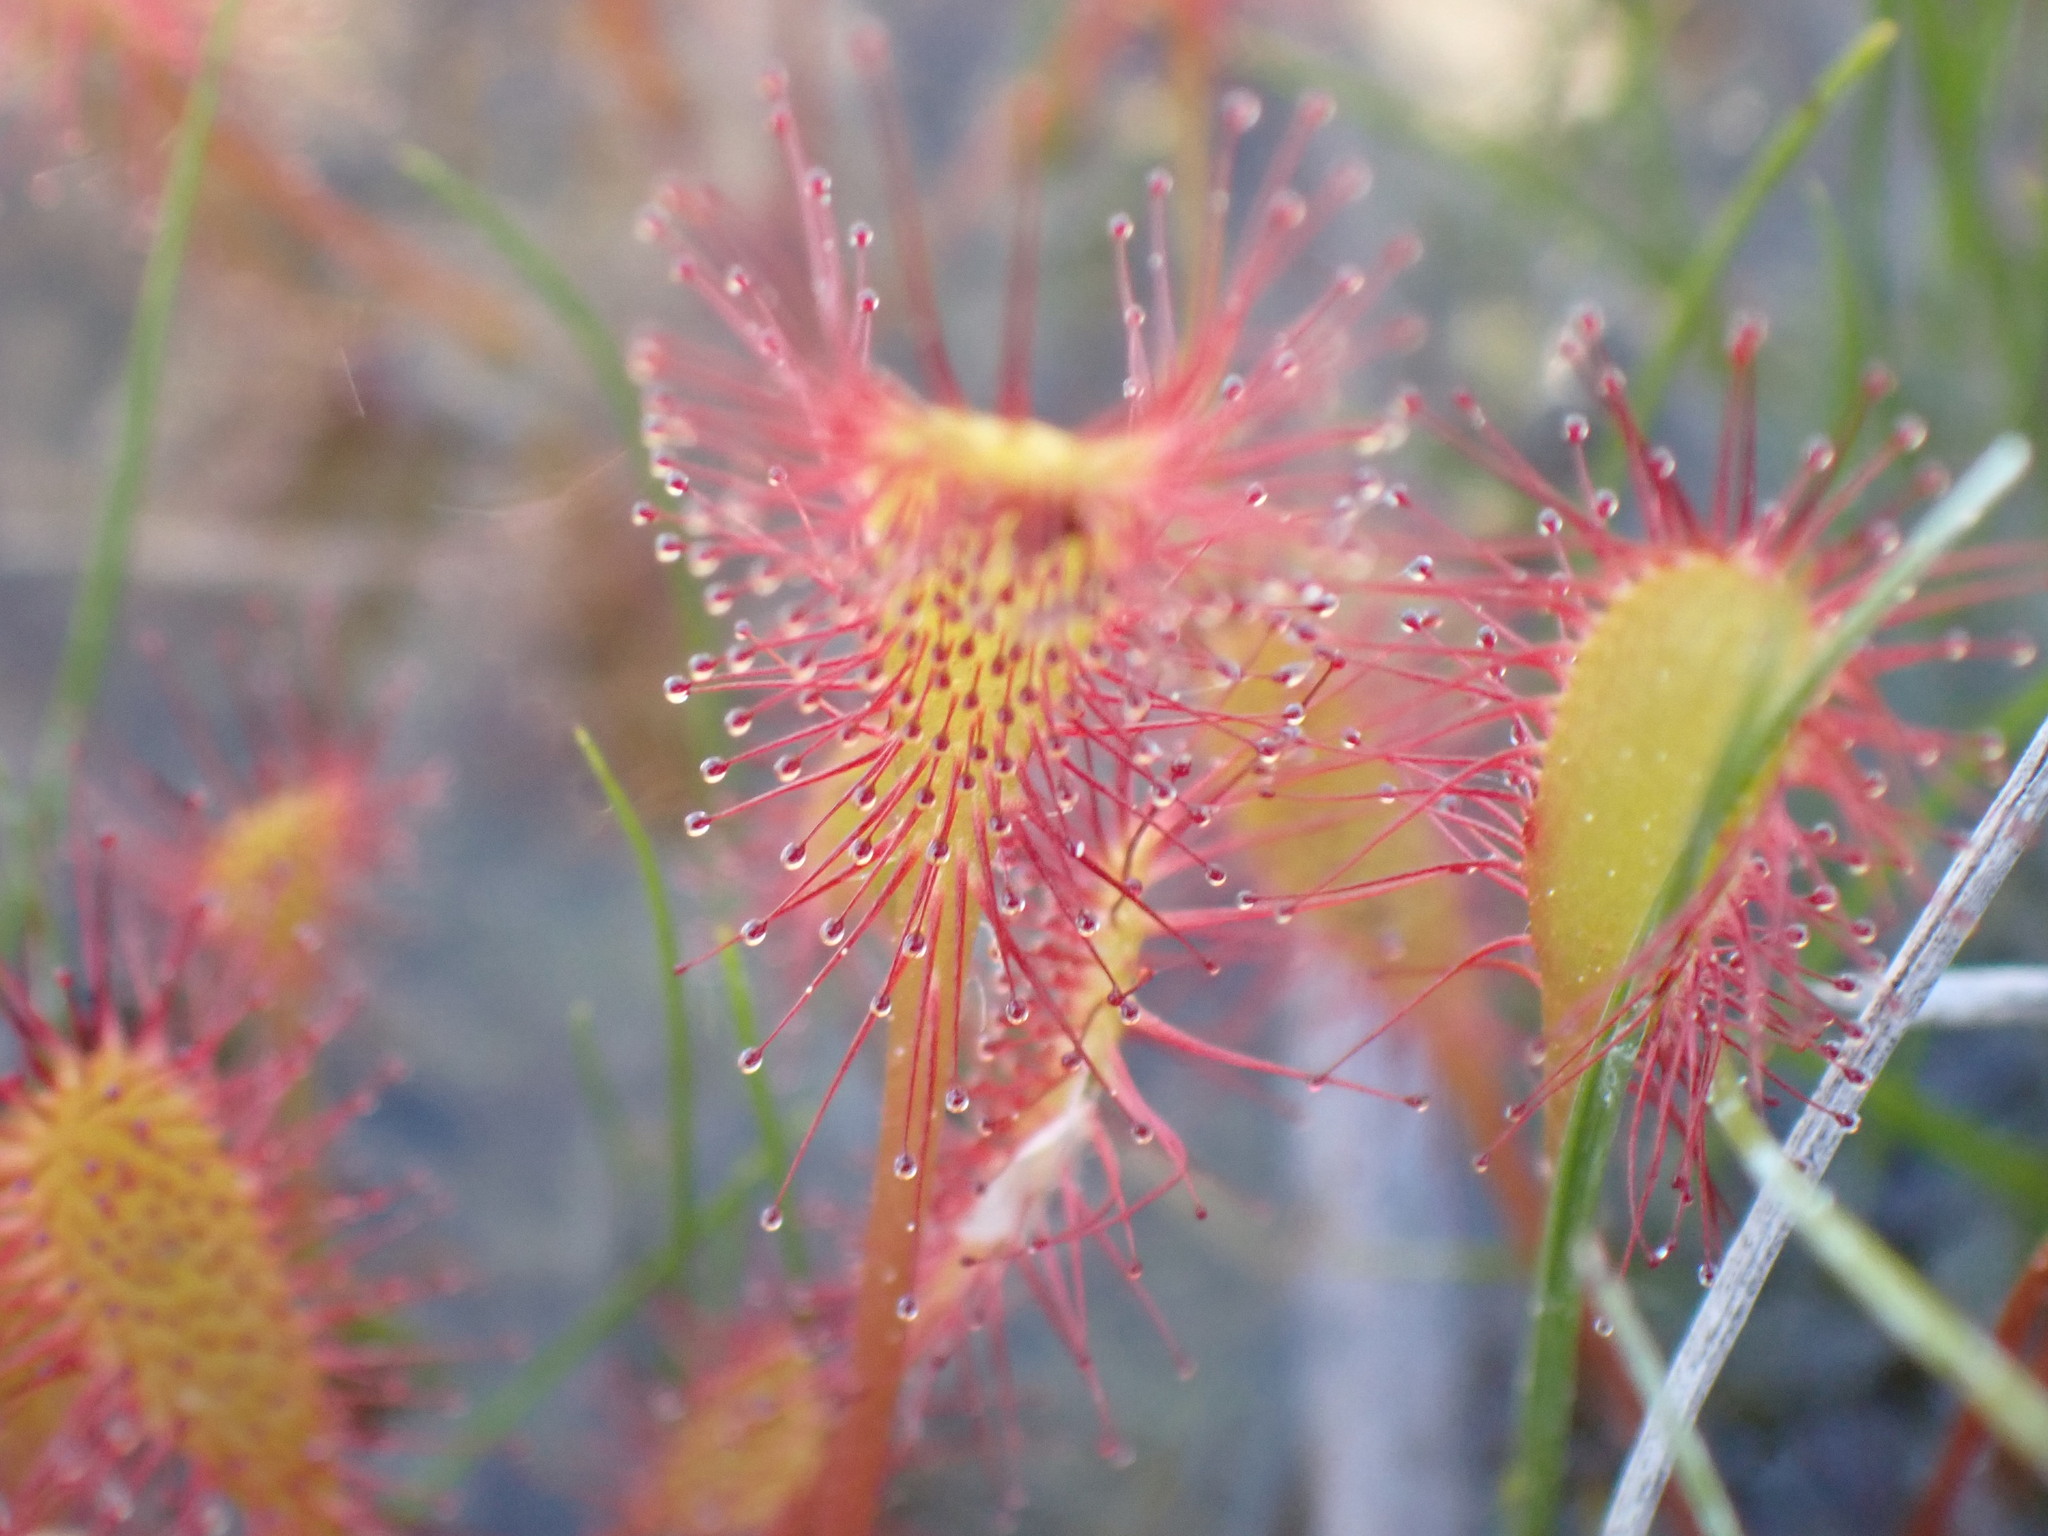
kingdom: Plantae
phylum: Tracheophyta
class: Magnoliopsida
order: Caryophyllales
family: Droseraceae
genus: Drosera
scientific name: Drosera anglica
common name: Great sundew
